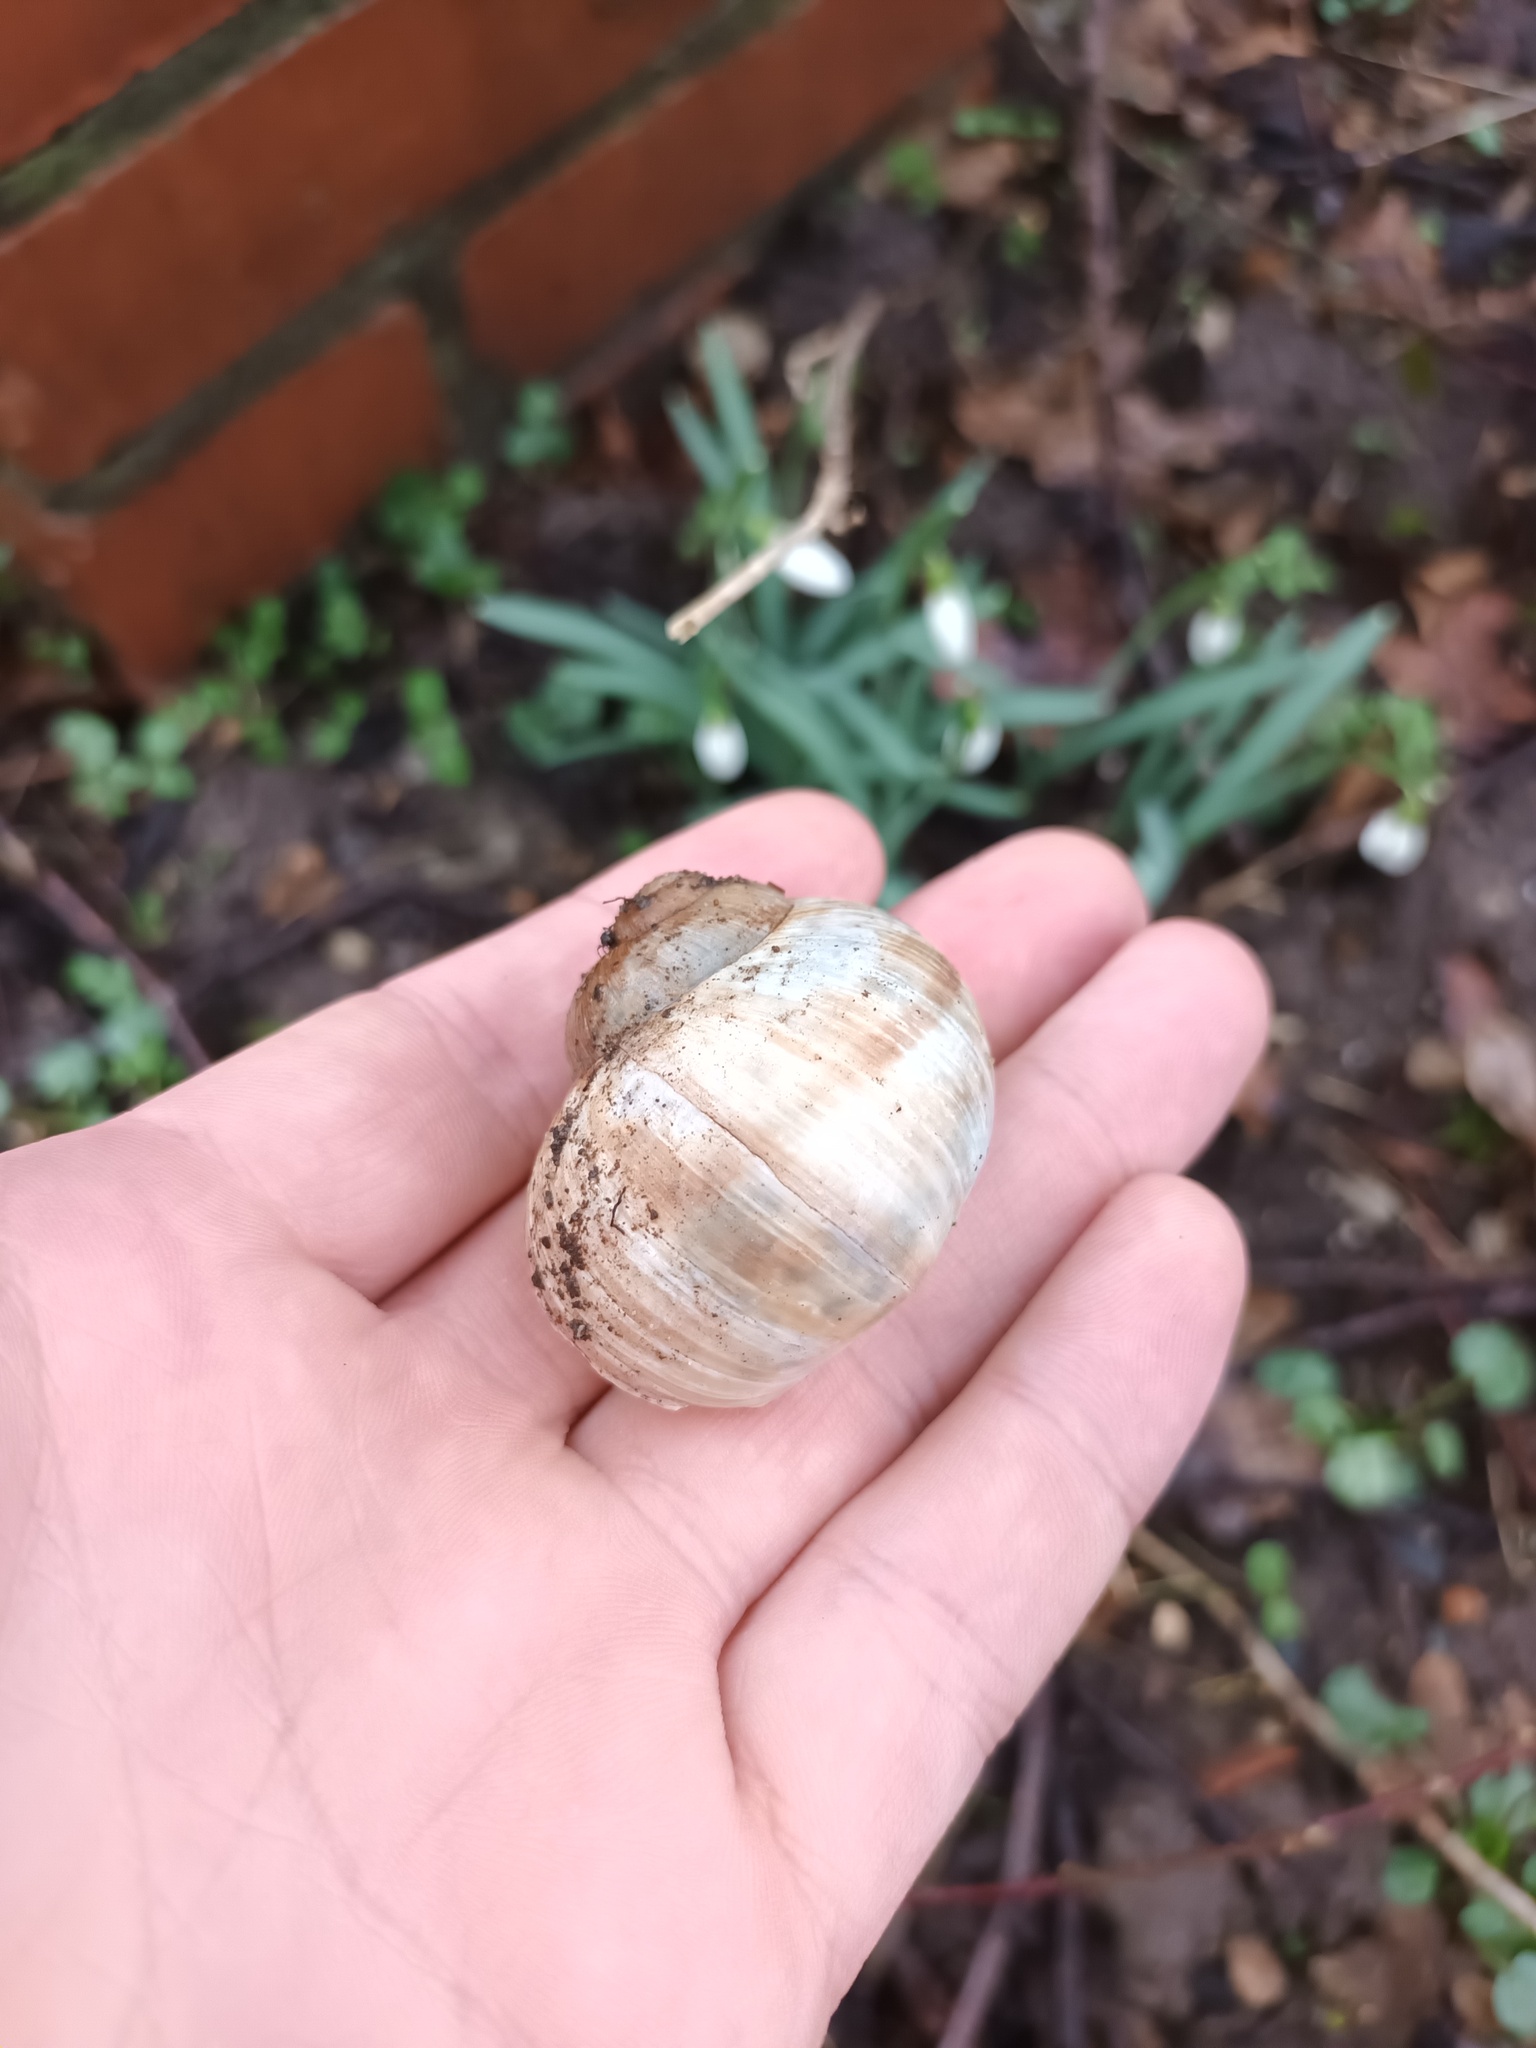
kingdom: Animalia
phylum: Mollusca
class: Gastropoda
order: Stylommatophora
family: Helicidae
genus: Helix
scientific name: Helix pomatia
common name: Roman snail
